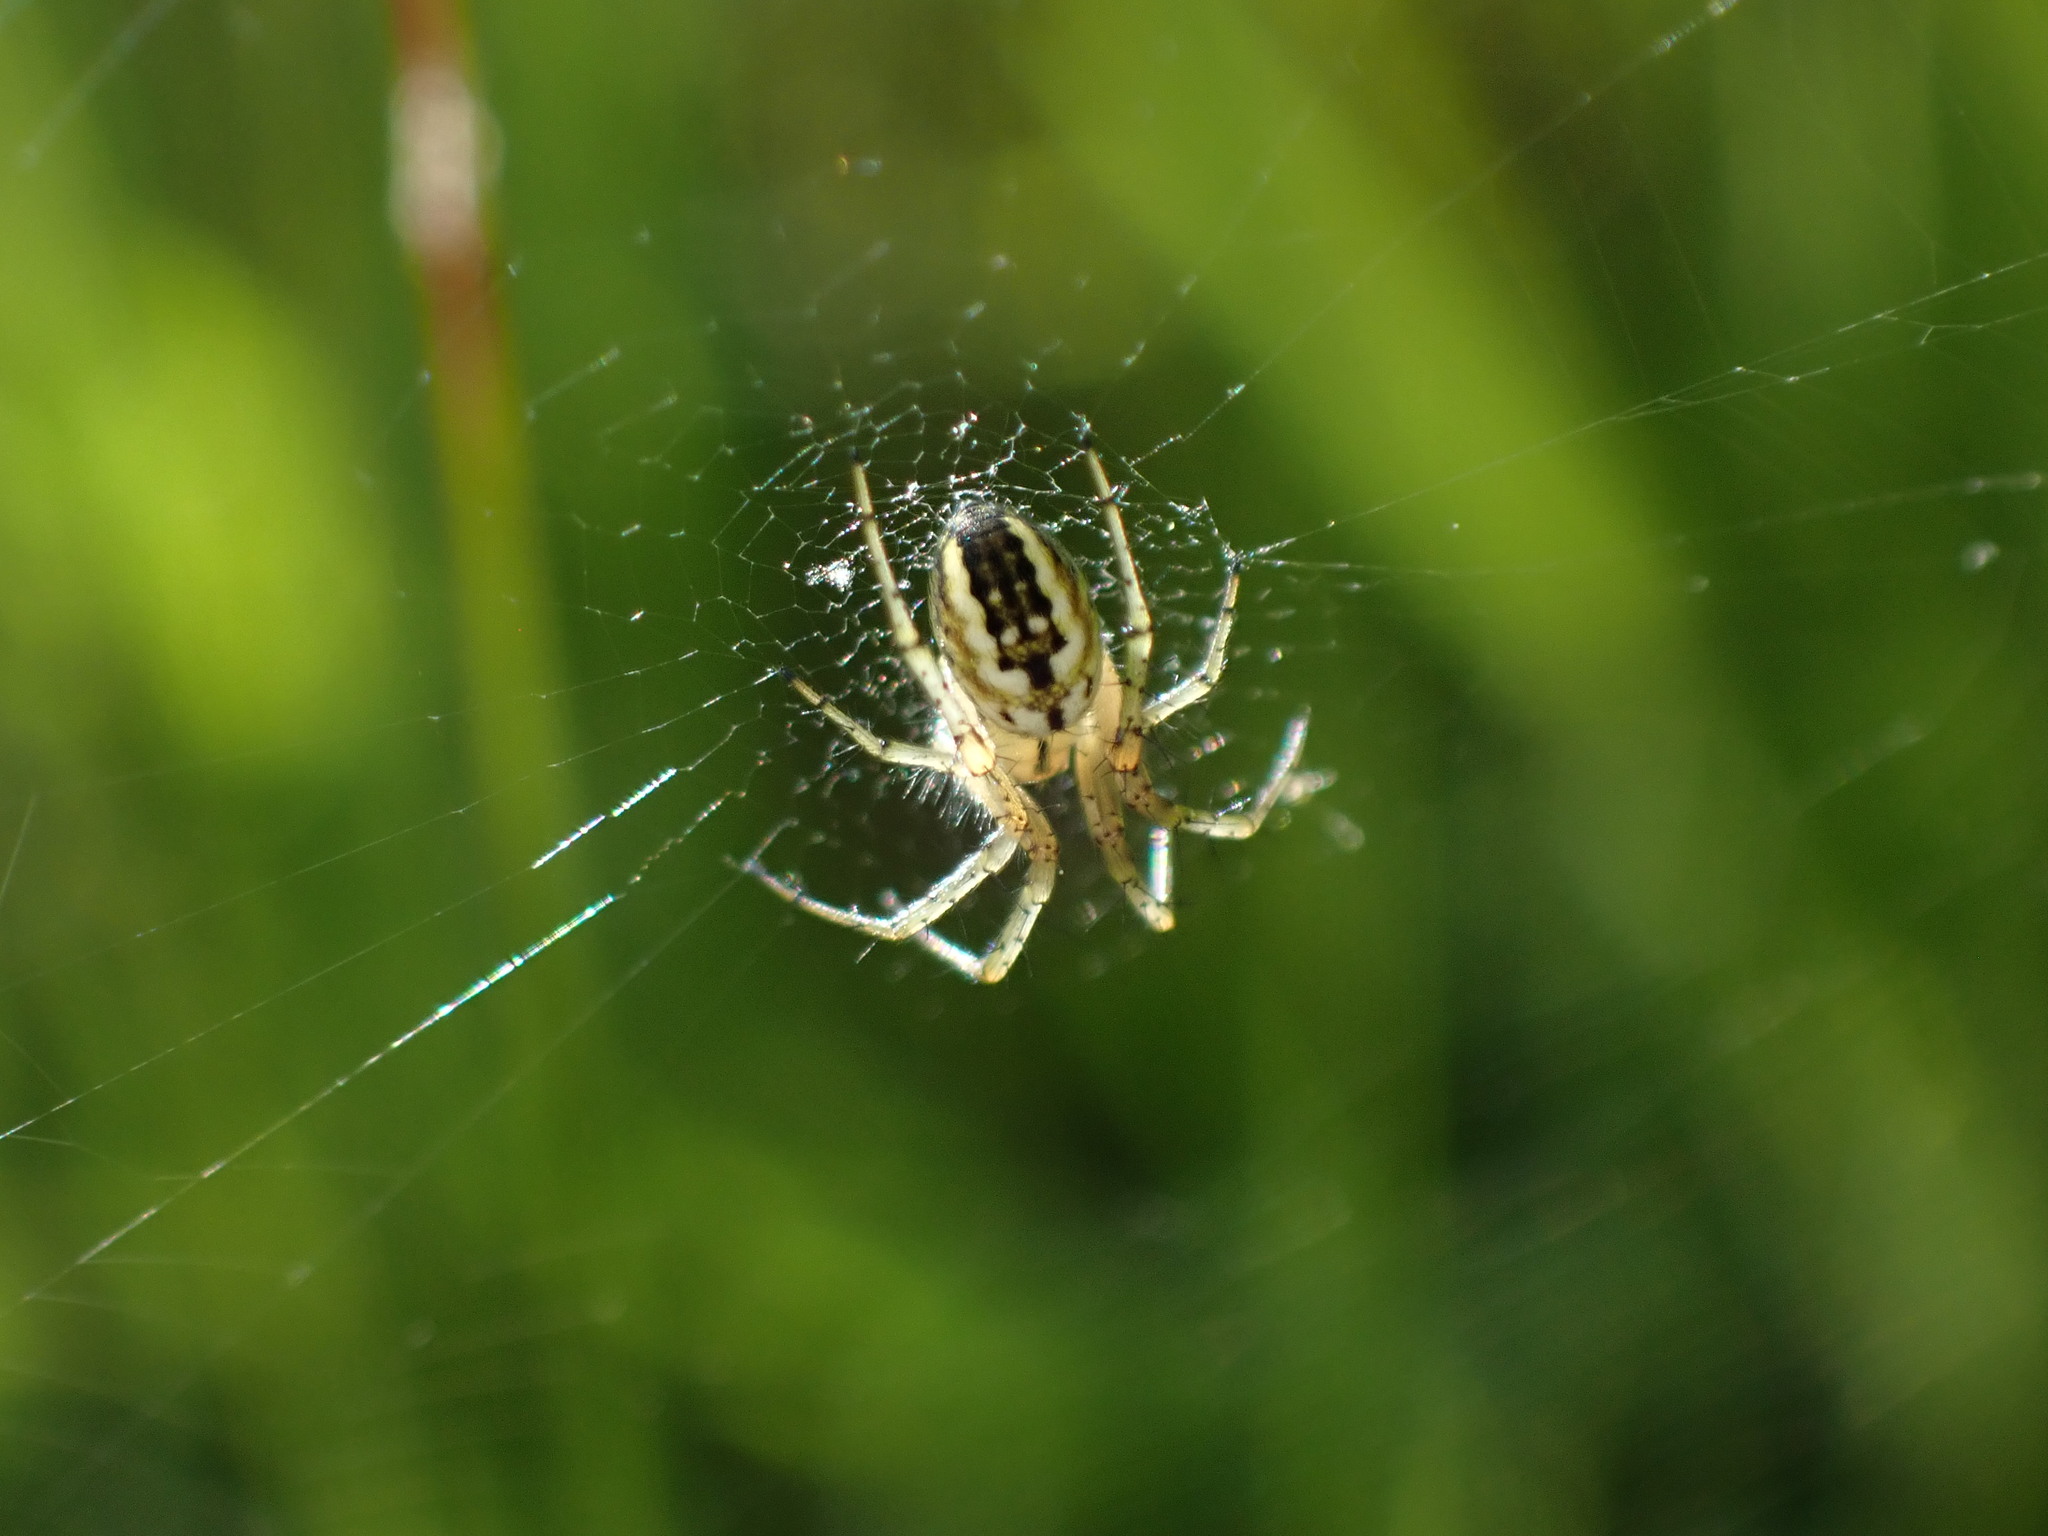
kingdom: Animalia
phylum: Arthropoda
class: Arachnida
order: Araneae
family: Araneidae
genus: Mangora
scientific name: Mangora acalypha
